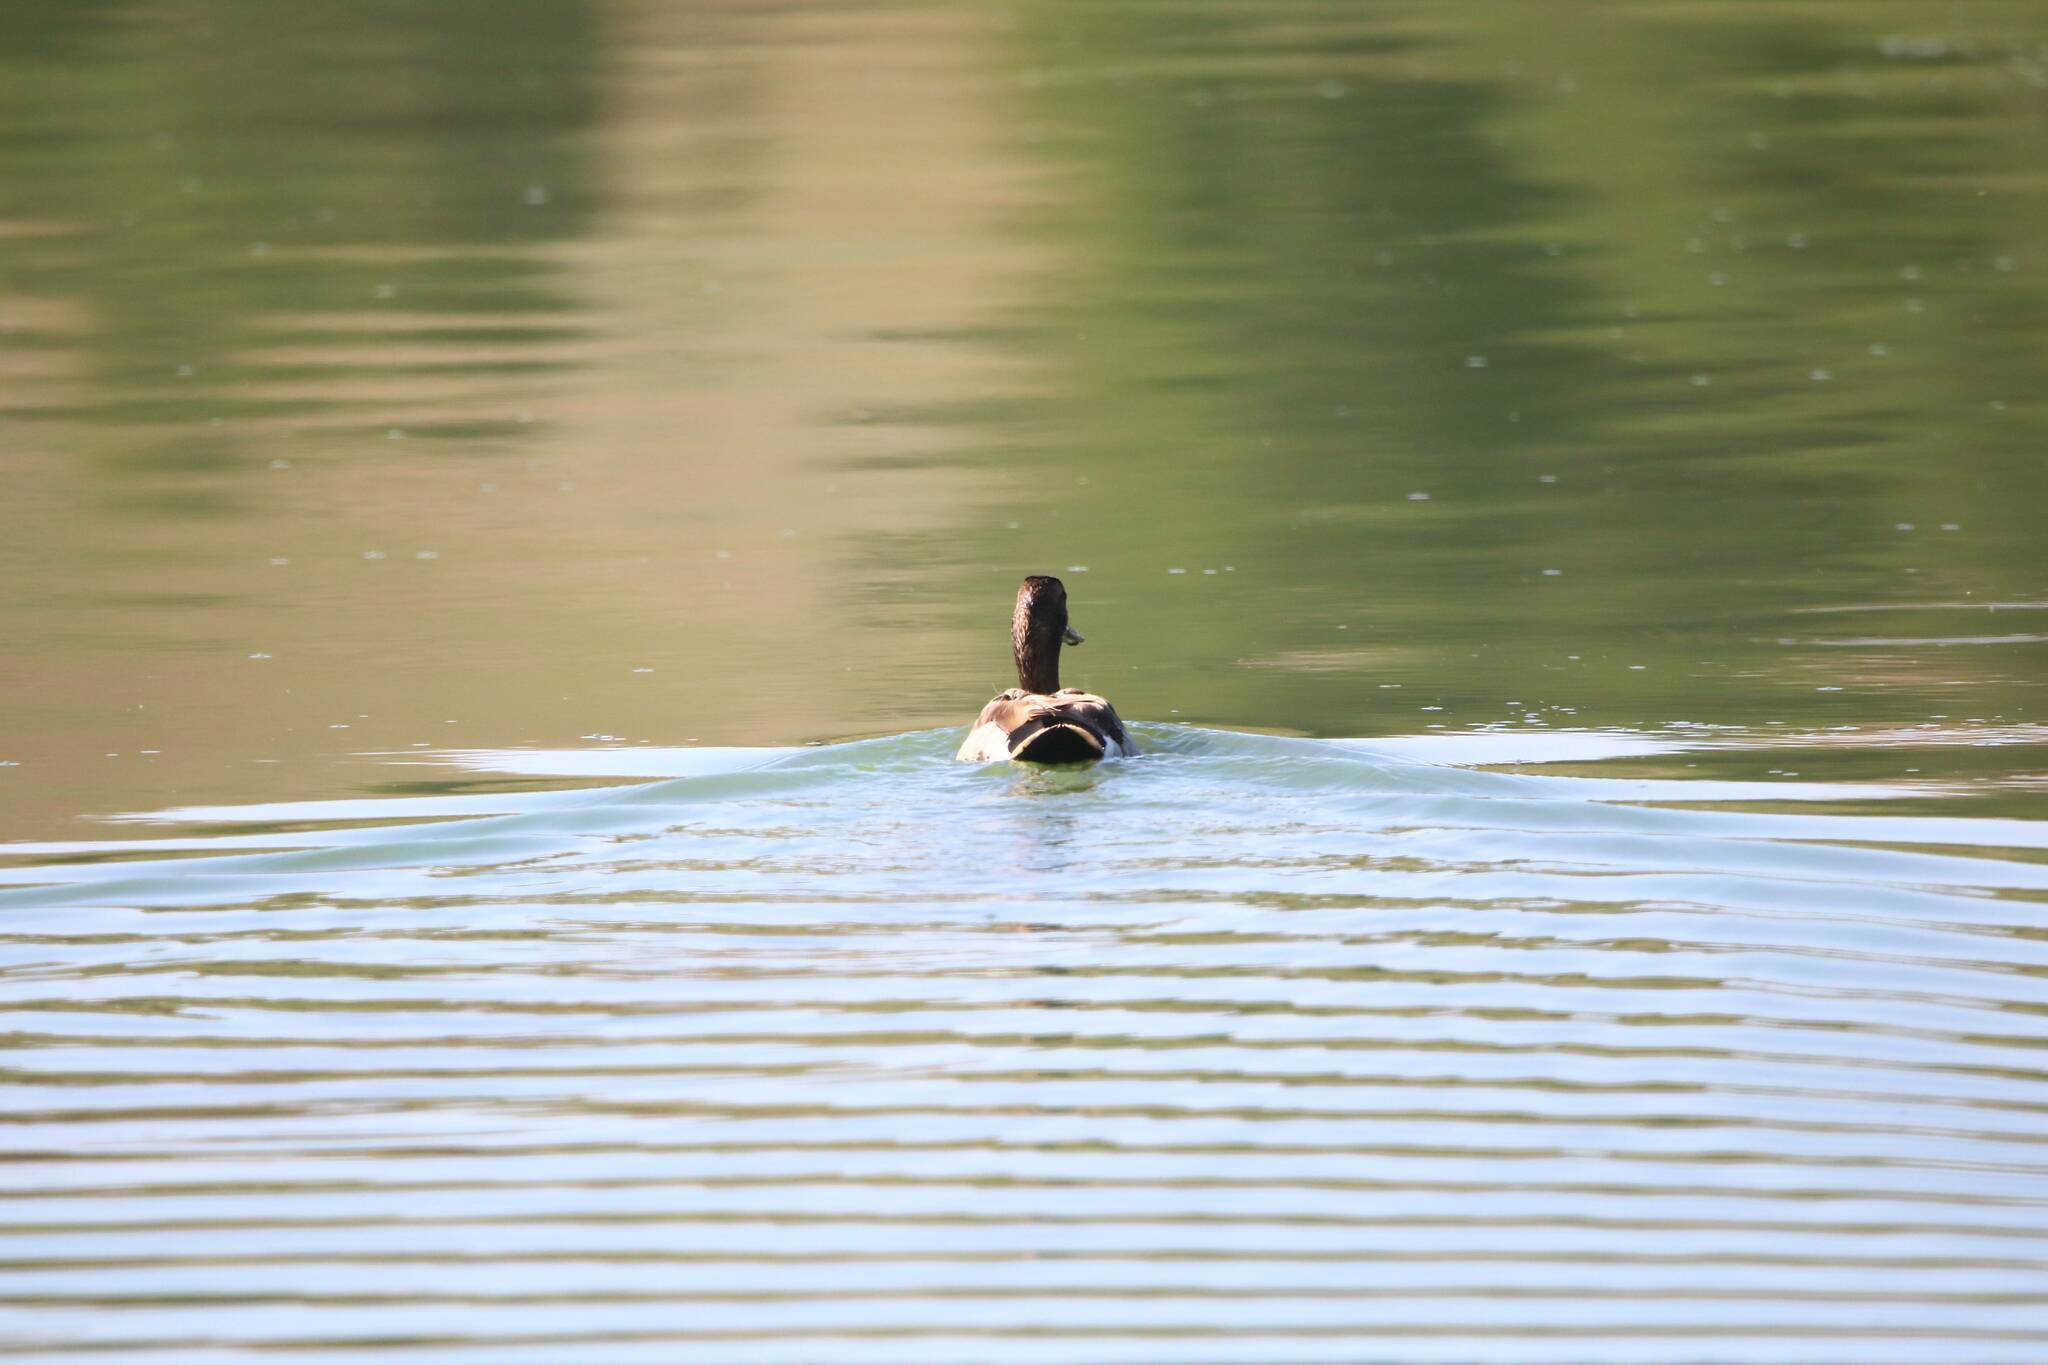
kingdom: Animalia
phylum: Chordata
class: Aves
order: Anseriformes
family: Anatidae
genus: Anas
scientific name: Anas platyrhynchos
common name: Mallard
